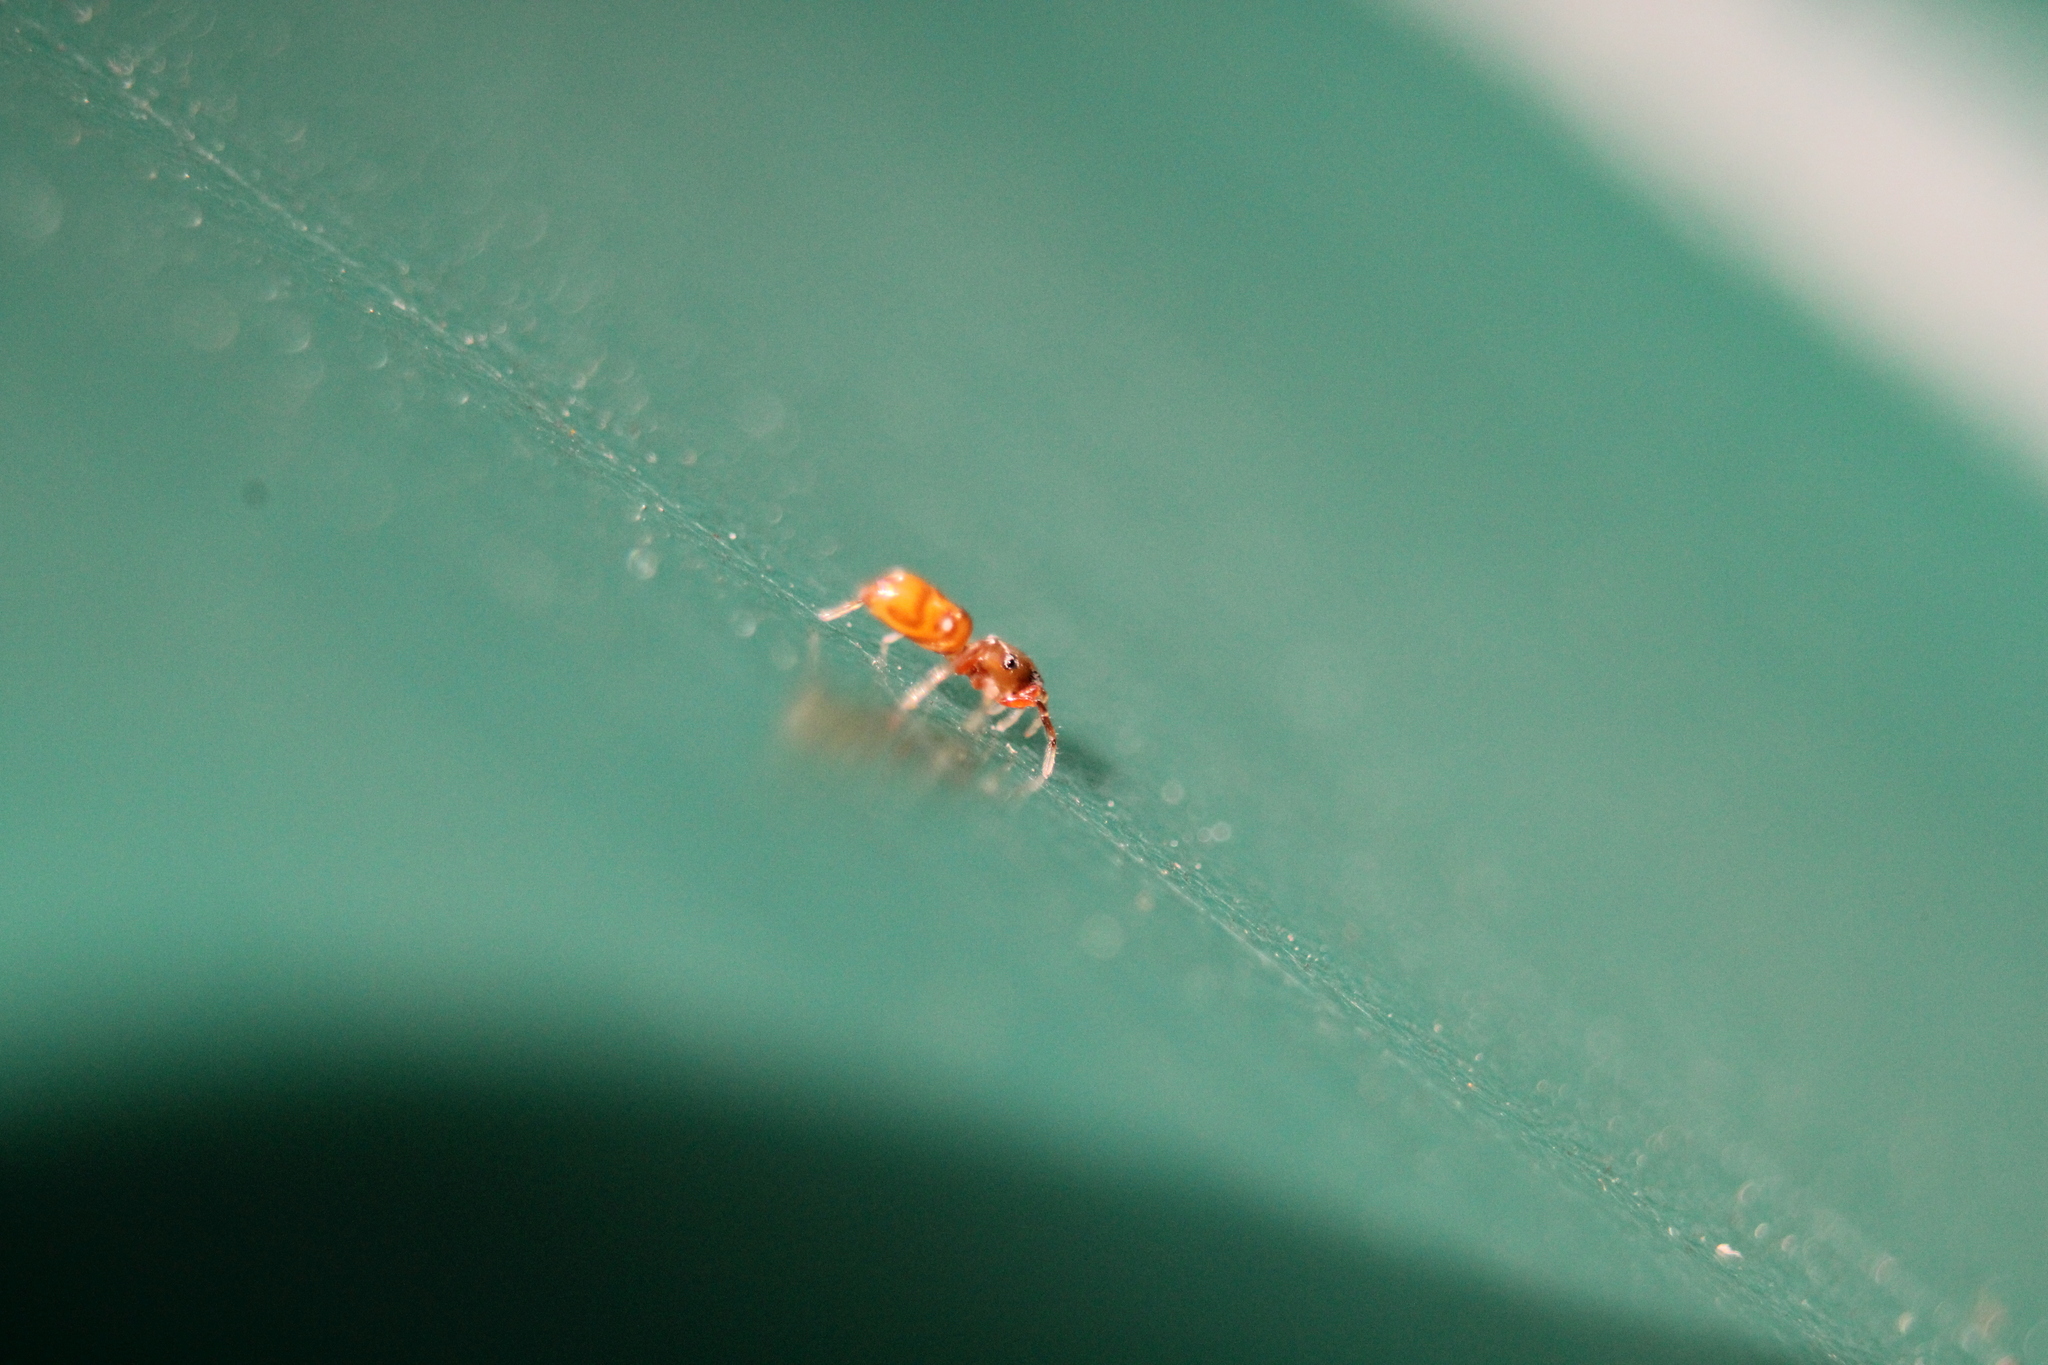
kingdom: Animalia
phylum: Arthropoda
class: Arachnida
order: Araneae
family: Salticidae
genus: Synageles
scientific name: Synageles bishopi
